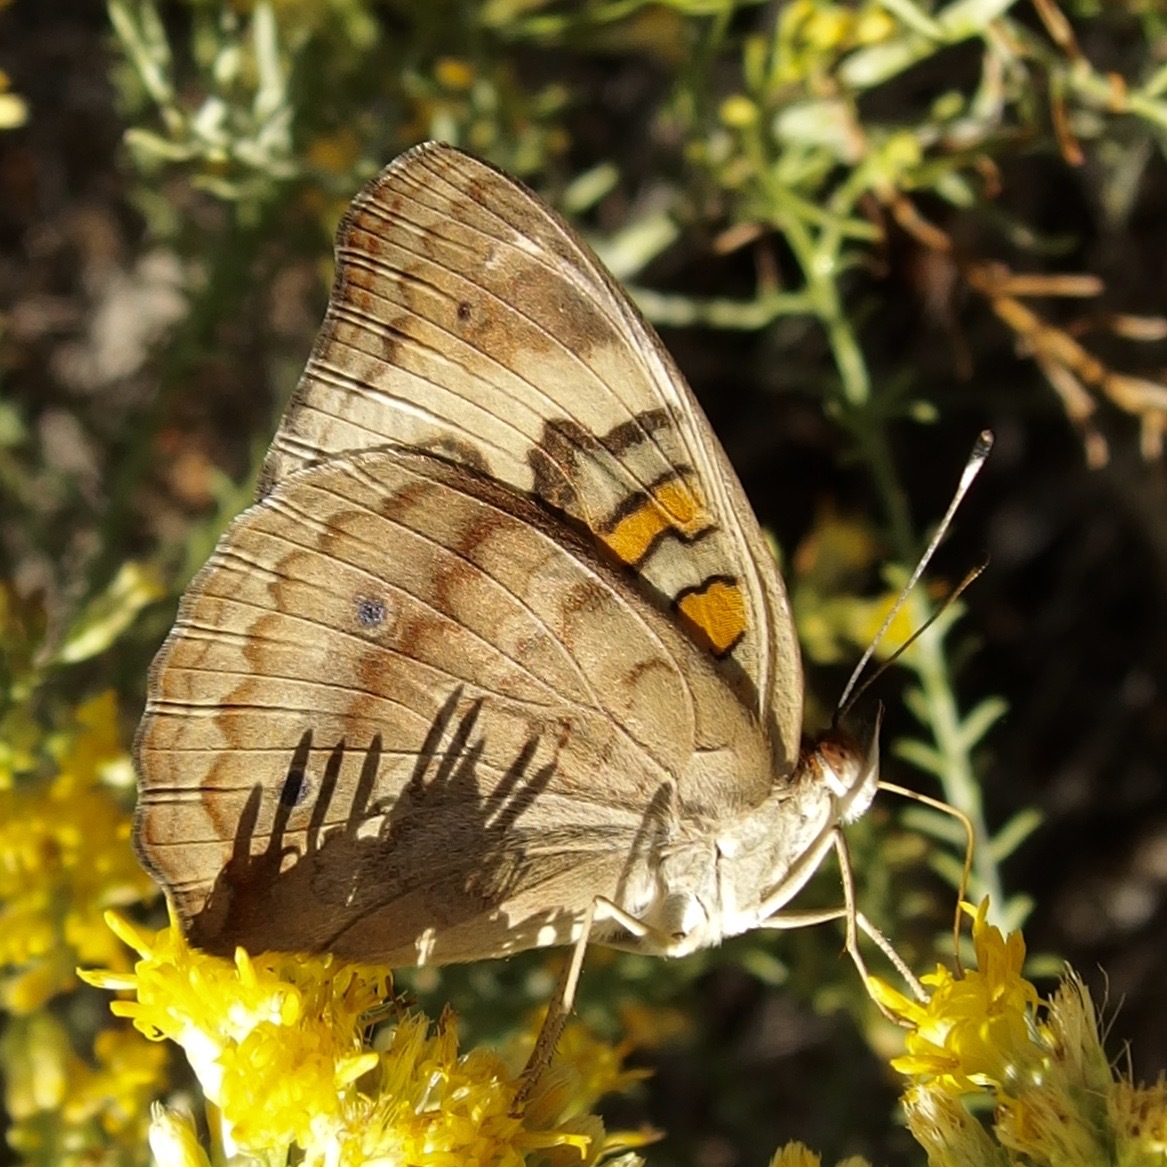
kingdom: Animalia
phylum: Arthropoda
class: Insecta
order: Lepidoptera
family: Nymphalidae
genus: Junonia
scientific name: Junonia pacoma
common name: Pacific mangrove buckeye
